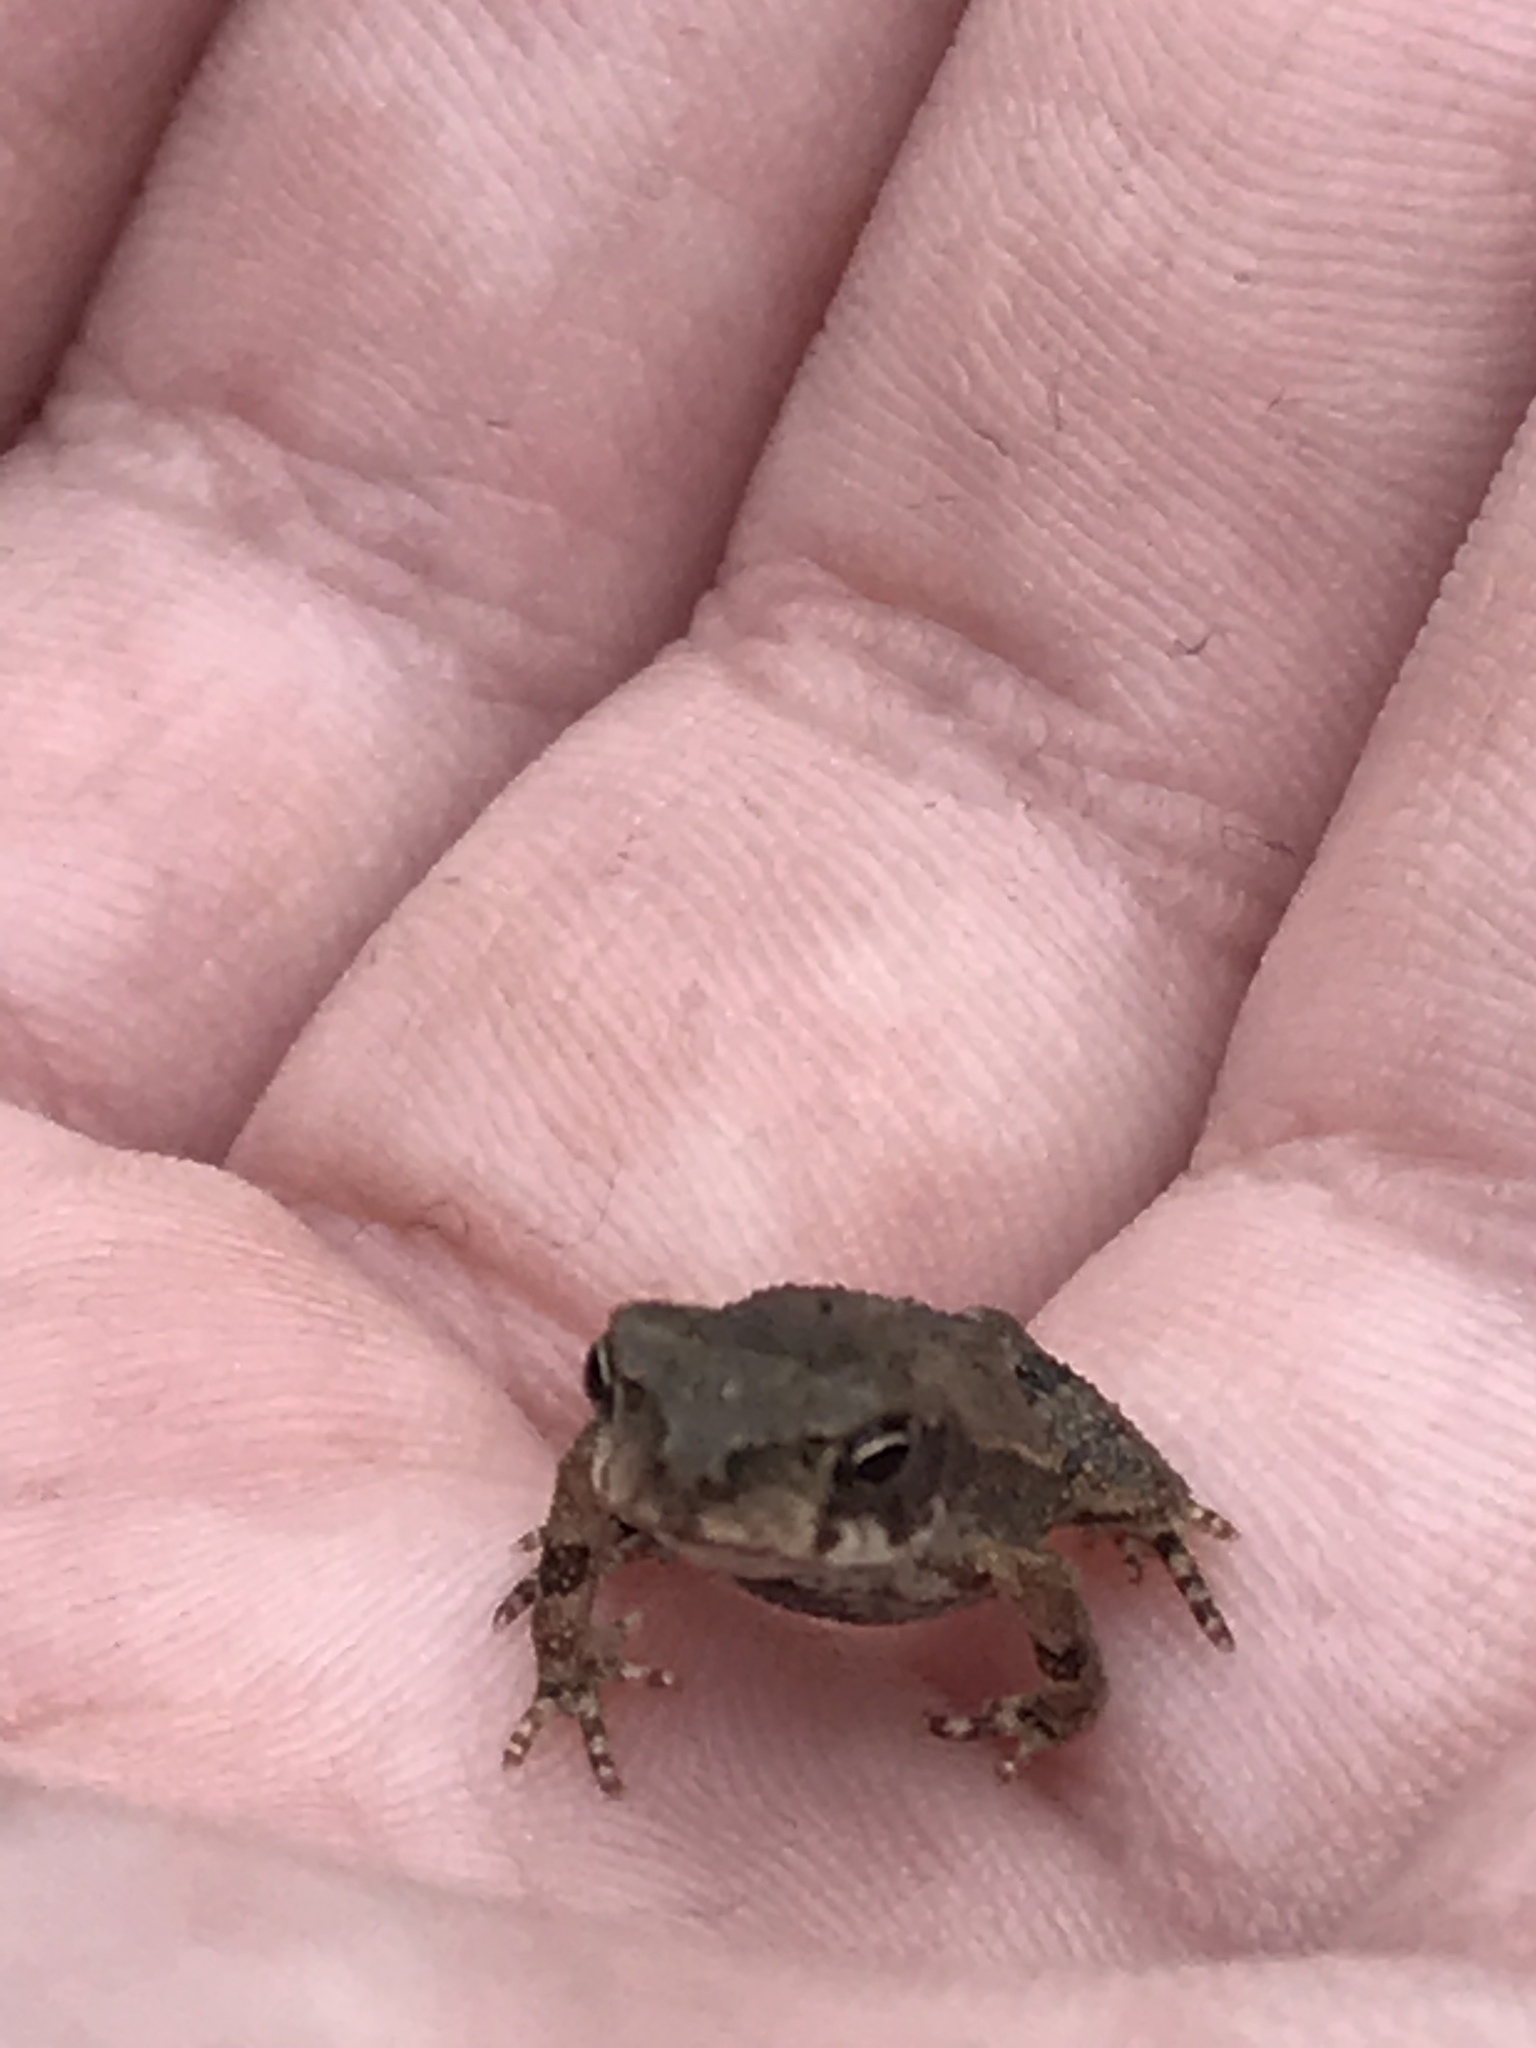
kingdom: Animalia
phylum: Chordata
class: Amphibia
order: Anura
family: Bufonidae
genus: Incilius
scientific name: Incilius nebulifer
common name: Gulf coast toad
